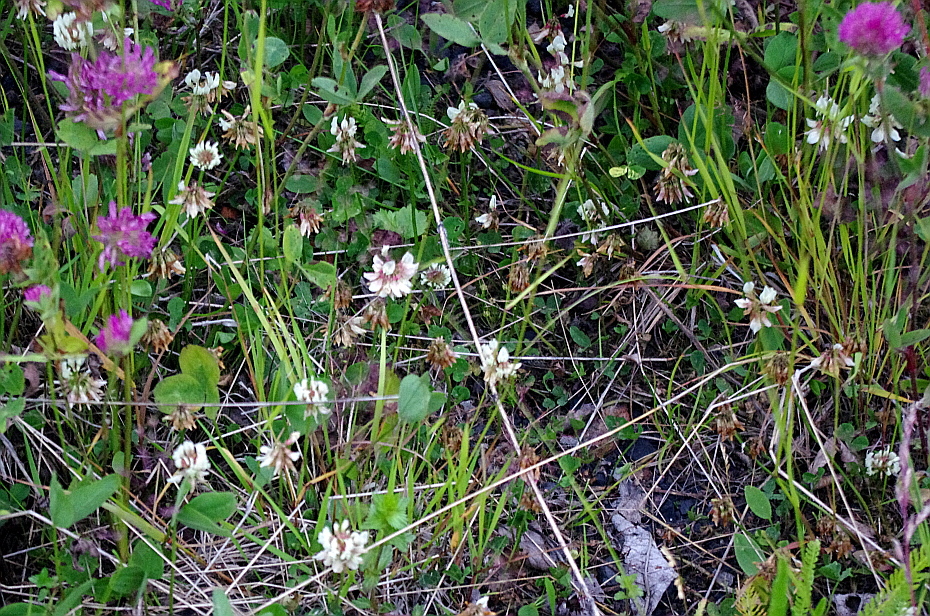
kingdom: Plantae
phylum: Tracheophyta
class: Magnoliopsida
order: Fabales
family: Fabaceae
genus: Trifolium
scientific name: Trifolium repens
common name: White clover
